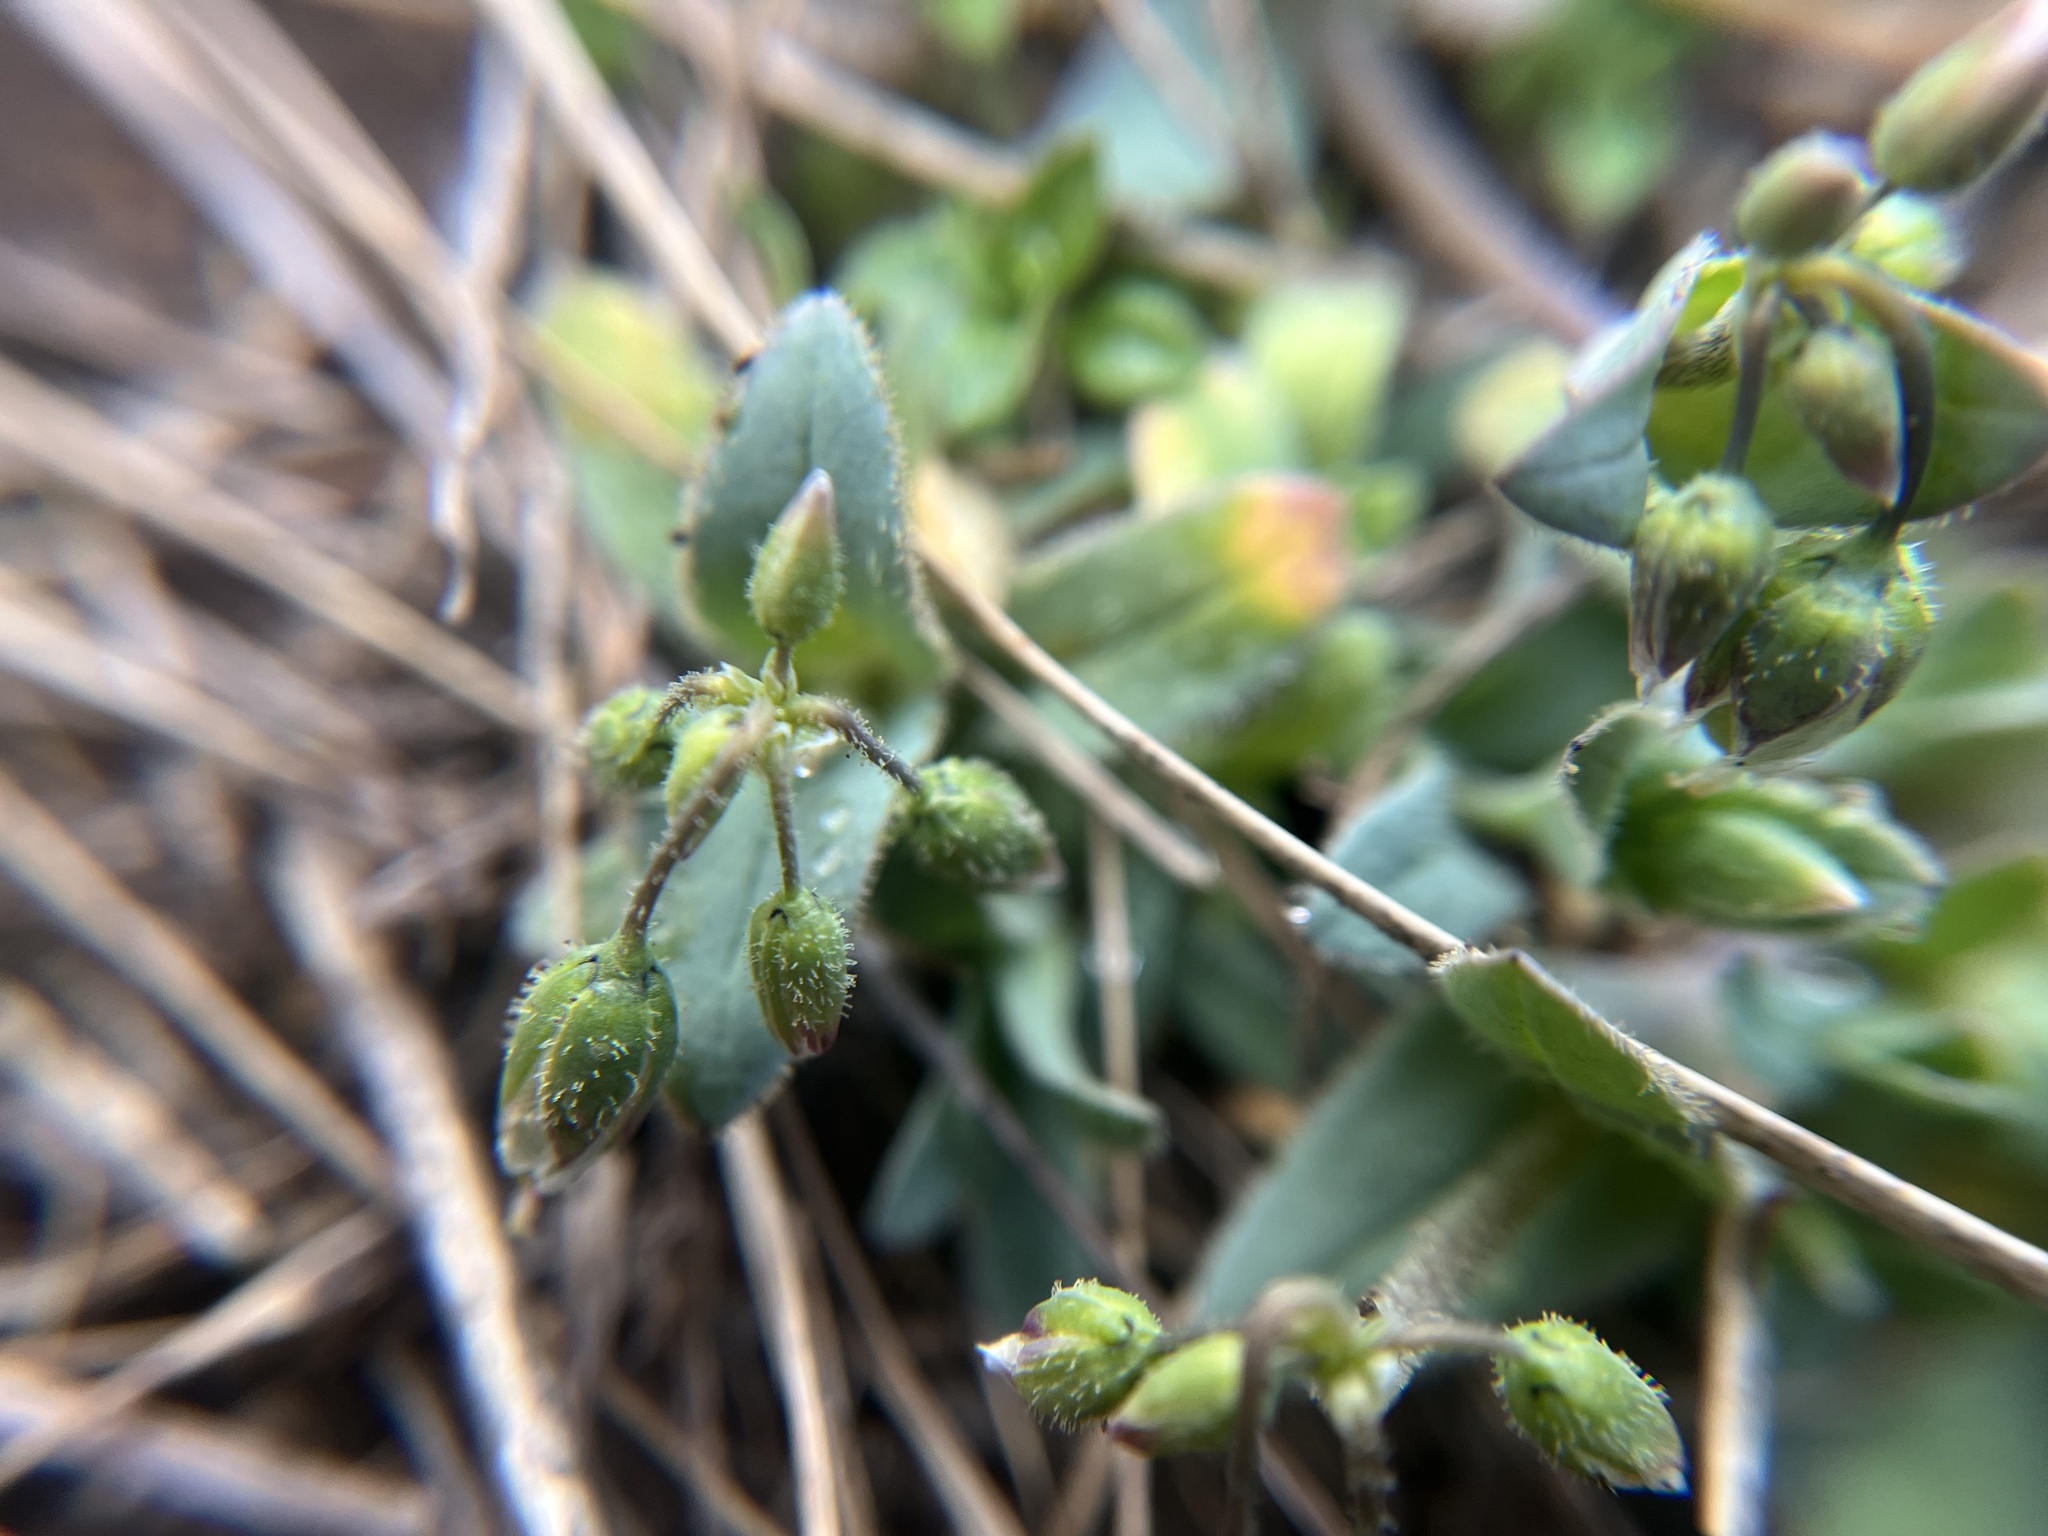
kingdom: Plantae
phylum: Tracheophyta
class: Magnoliopsida
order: Caryophyllales
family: Caryophyllaceae
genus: Holosteum
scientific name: Holosteum umbellatum
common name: Jagged chickweed
